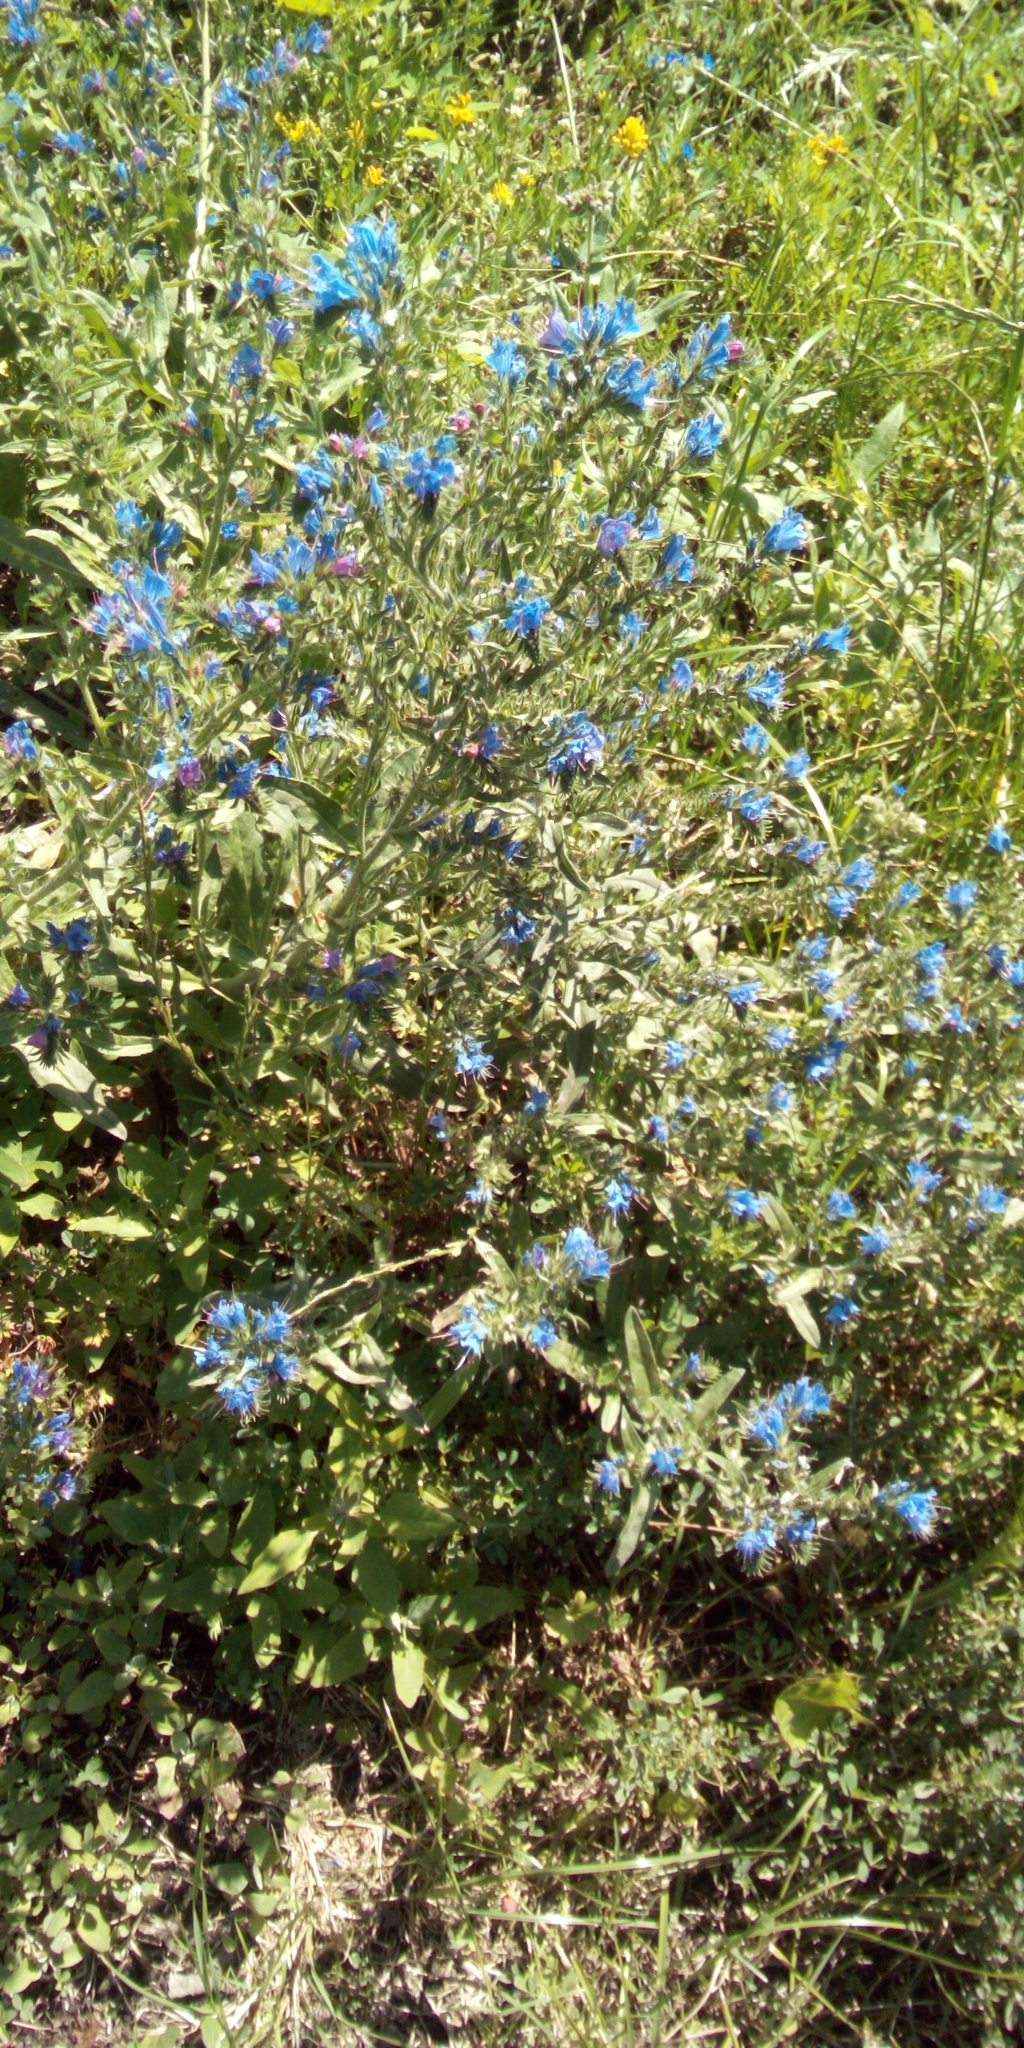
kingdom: Plantae
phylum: Tracheophyta
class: Magnoliopsida
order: Boraginales
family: Boraginaceae
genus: Echium
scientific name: Echium vulgare
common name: Common viper's bugloss
